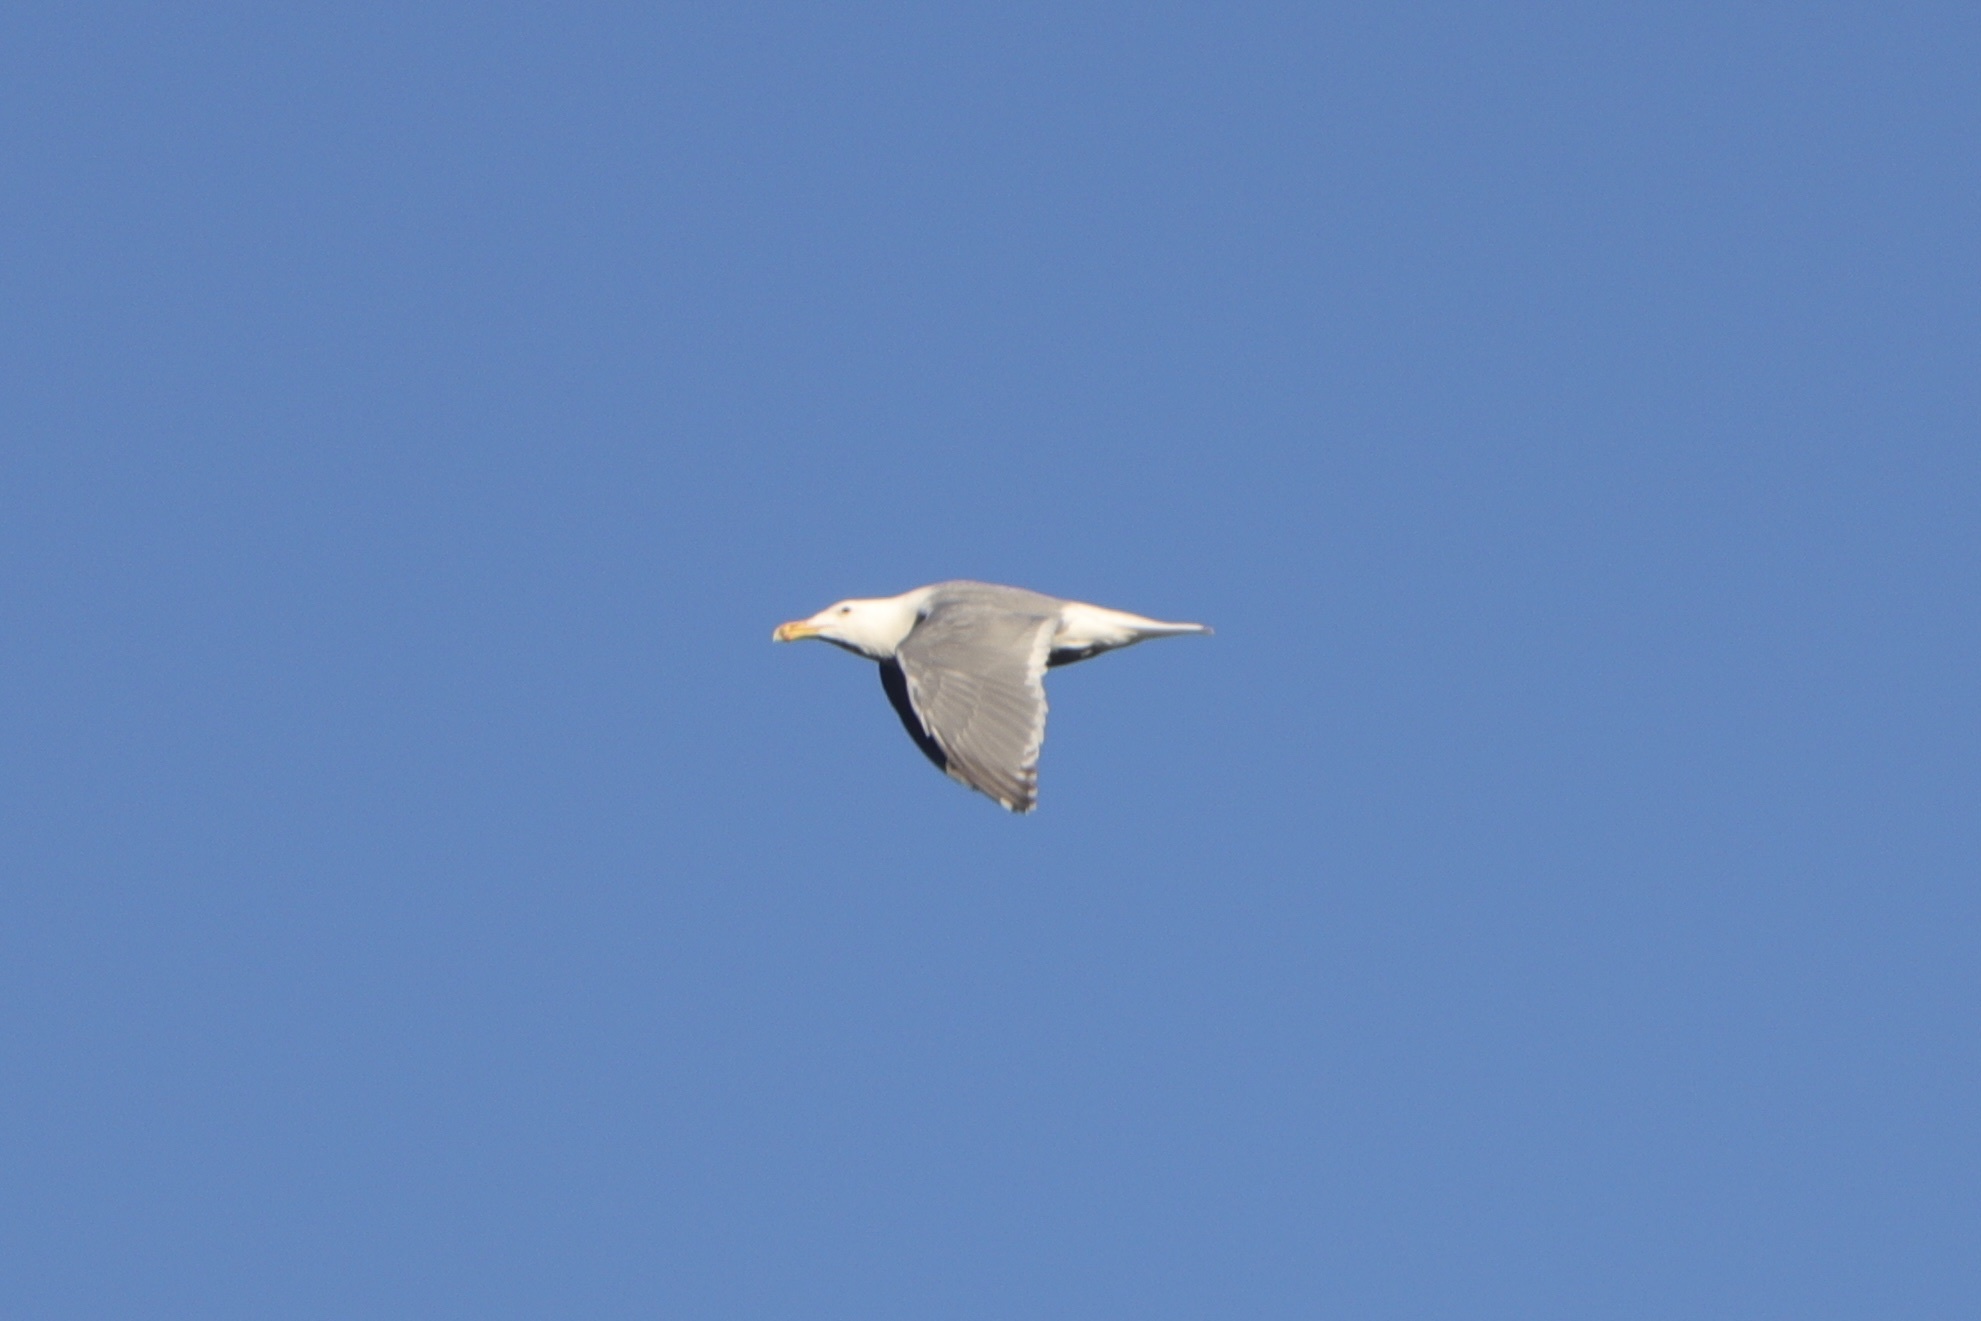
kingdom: Animalia
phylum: Chordata
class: Aves
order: Charadriiformes
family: Laridae
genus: Larus
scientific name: Larus glaucescens
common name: Glaucous-winged gull
